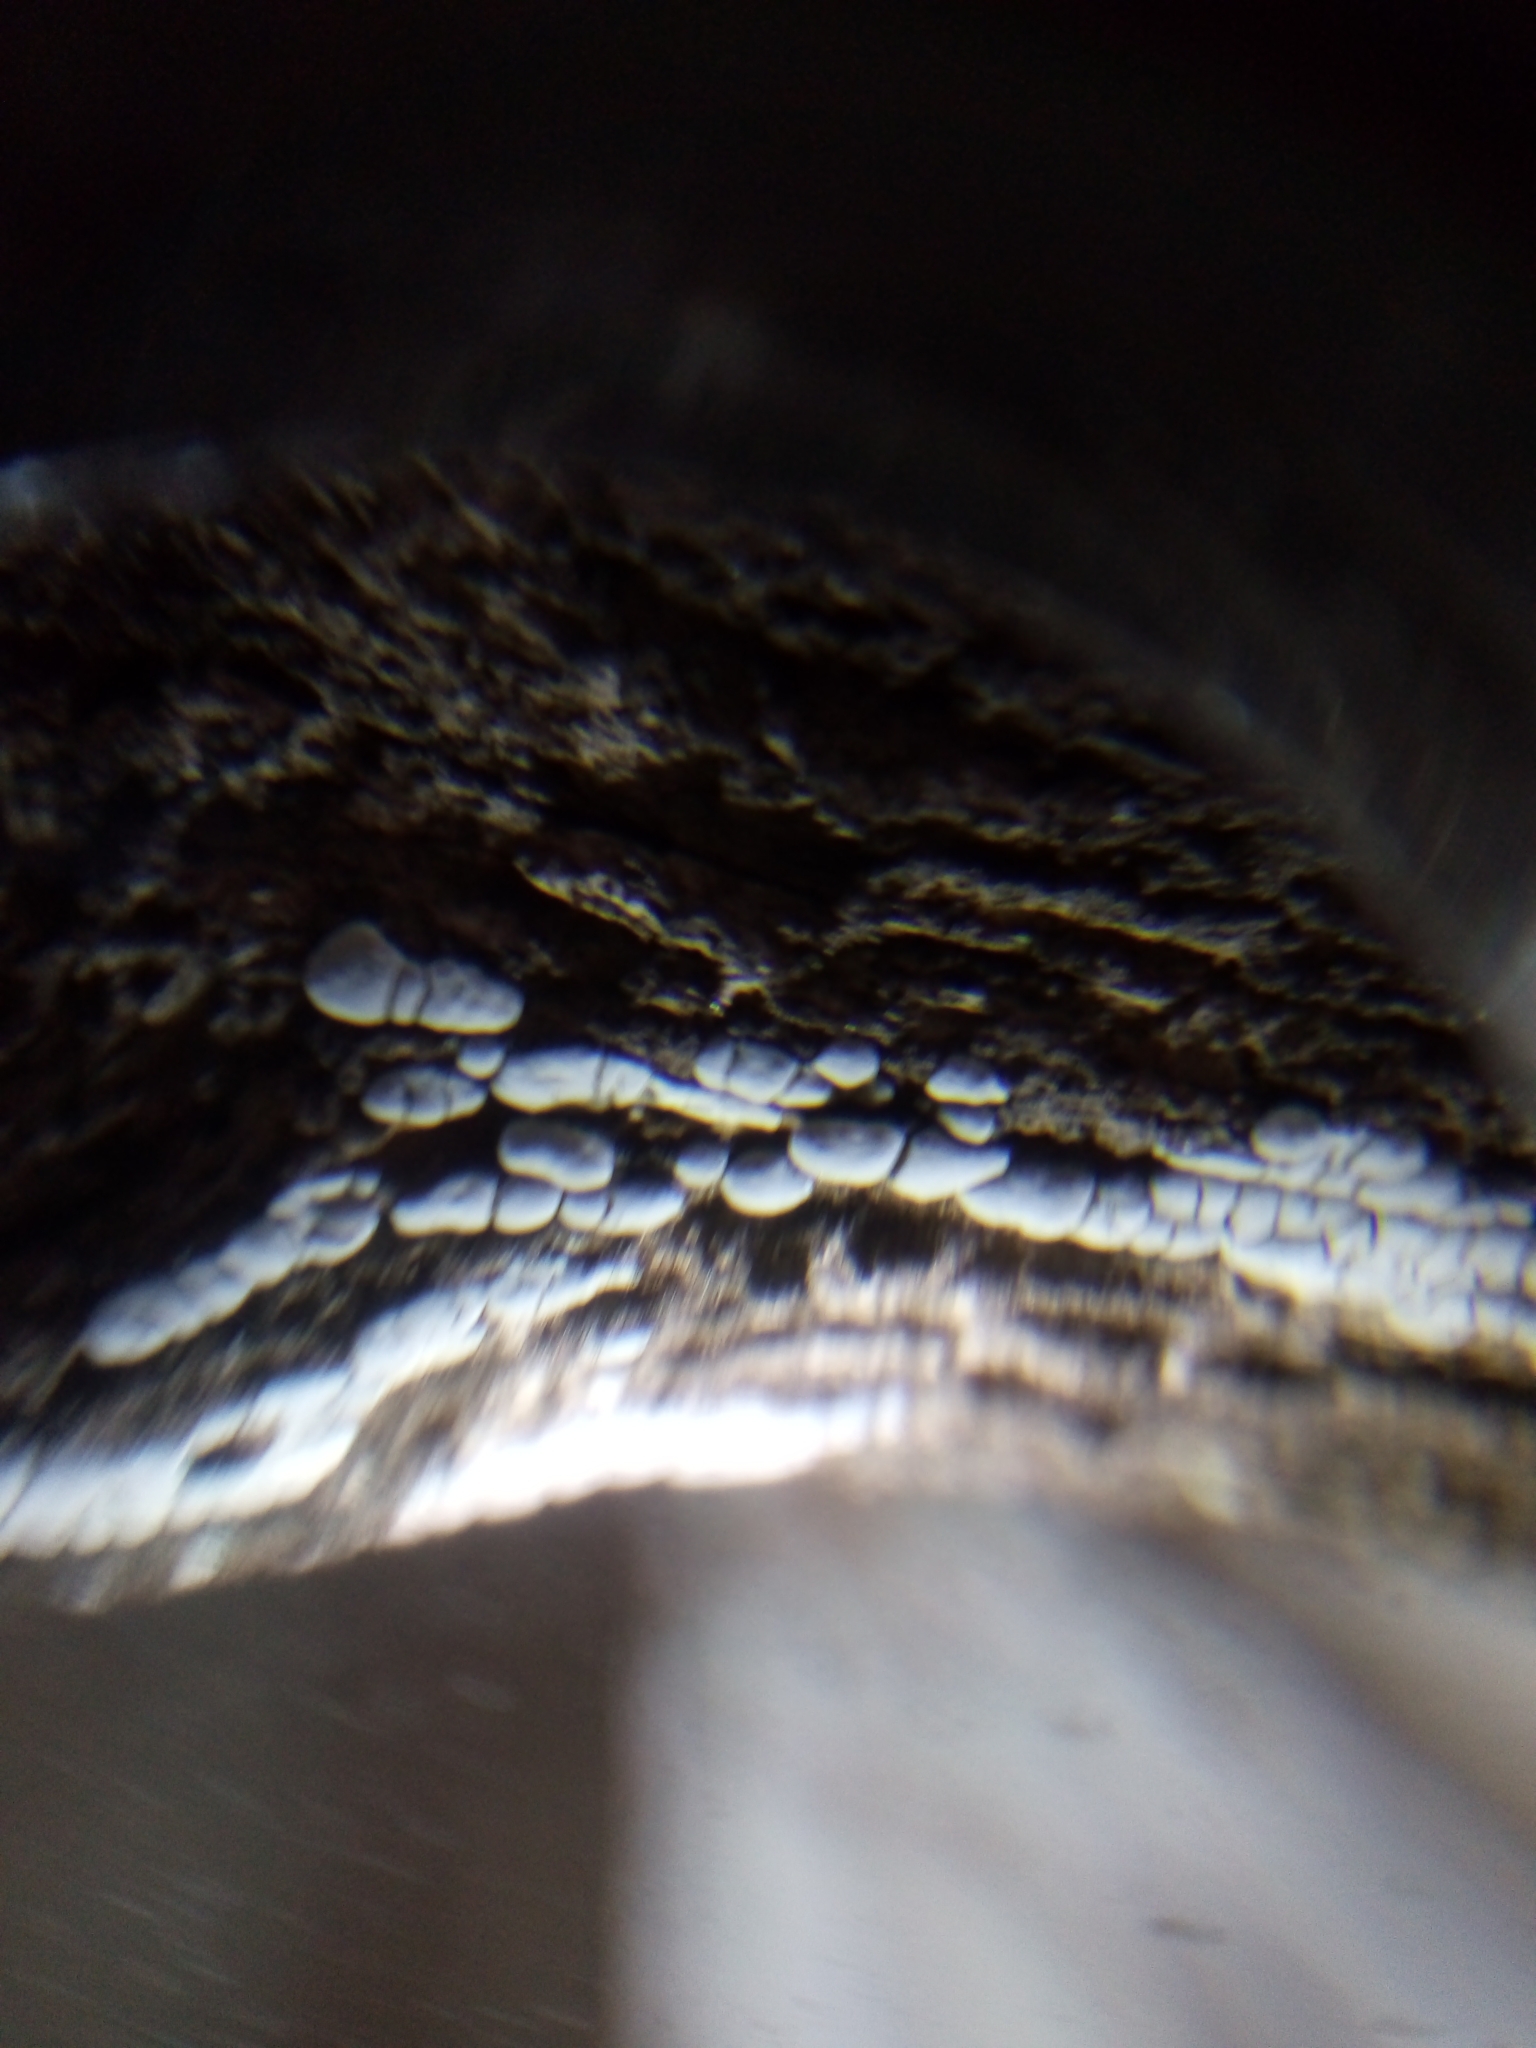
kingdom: Fungi
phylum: Basidiomycota
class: Agaricomycetes
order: Russulales
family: Stereaceae
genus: Xylobolus
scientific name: Xylobolus frustulatus
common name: Ceramic parchment
